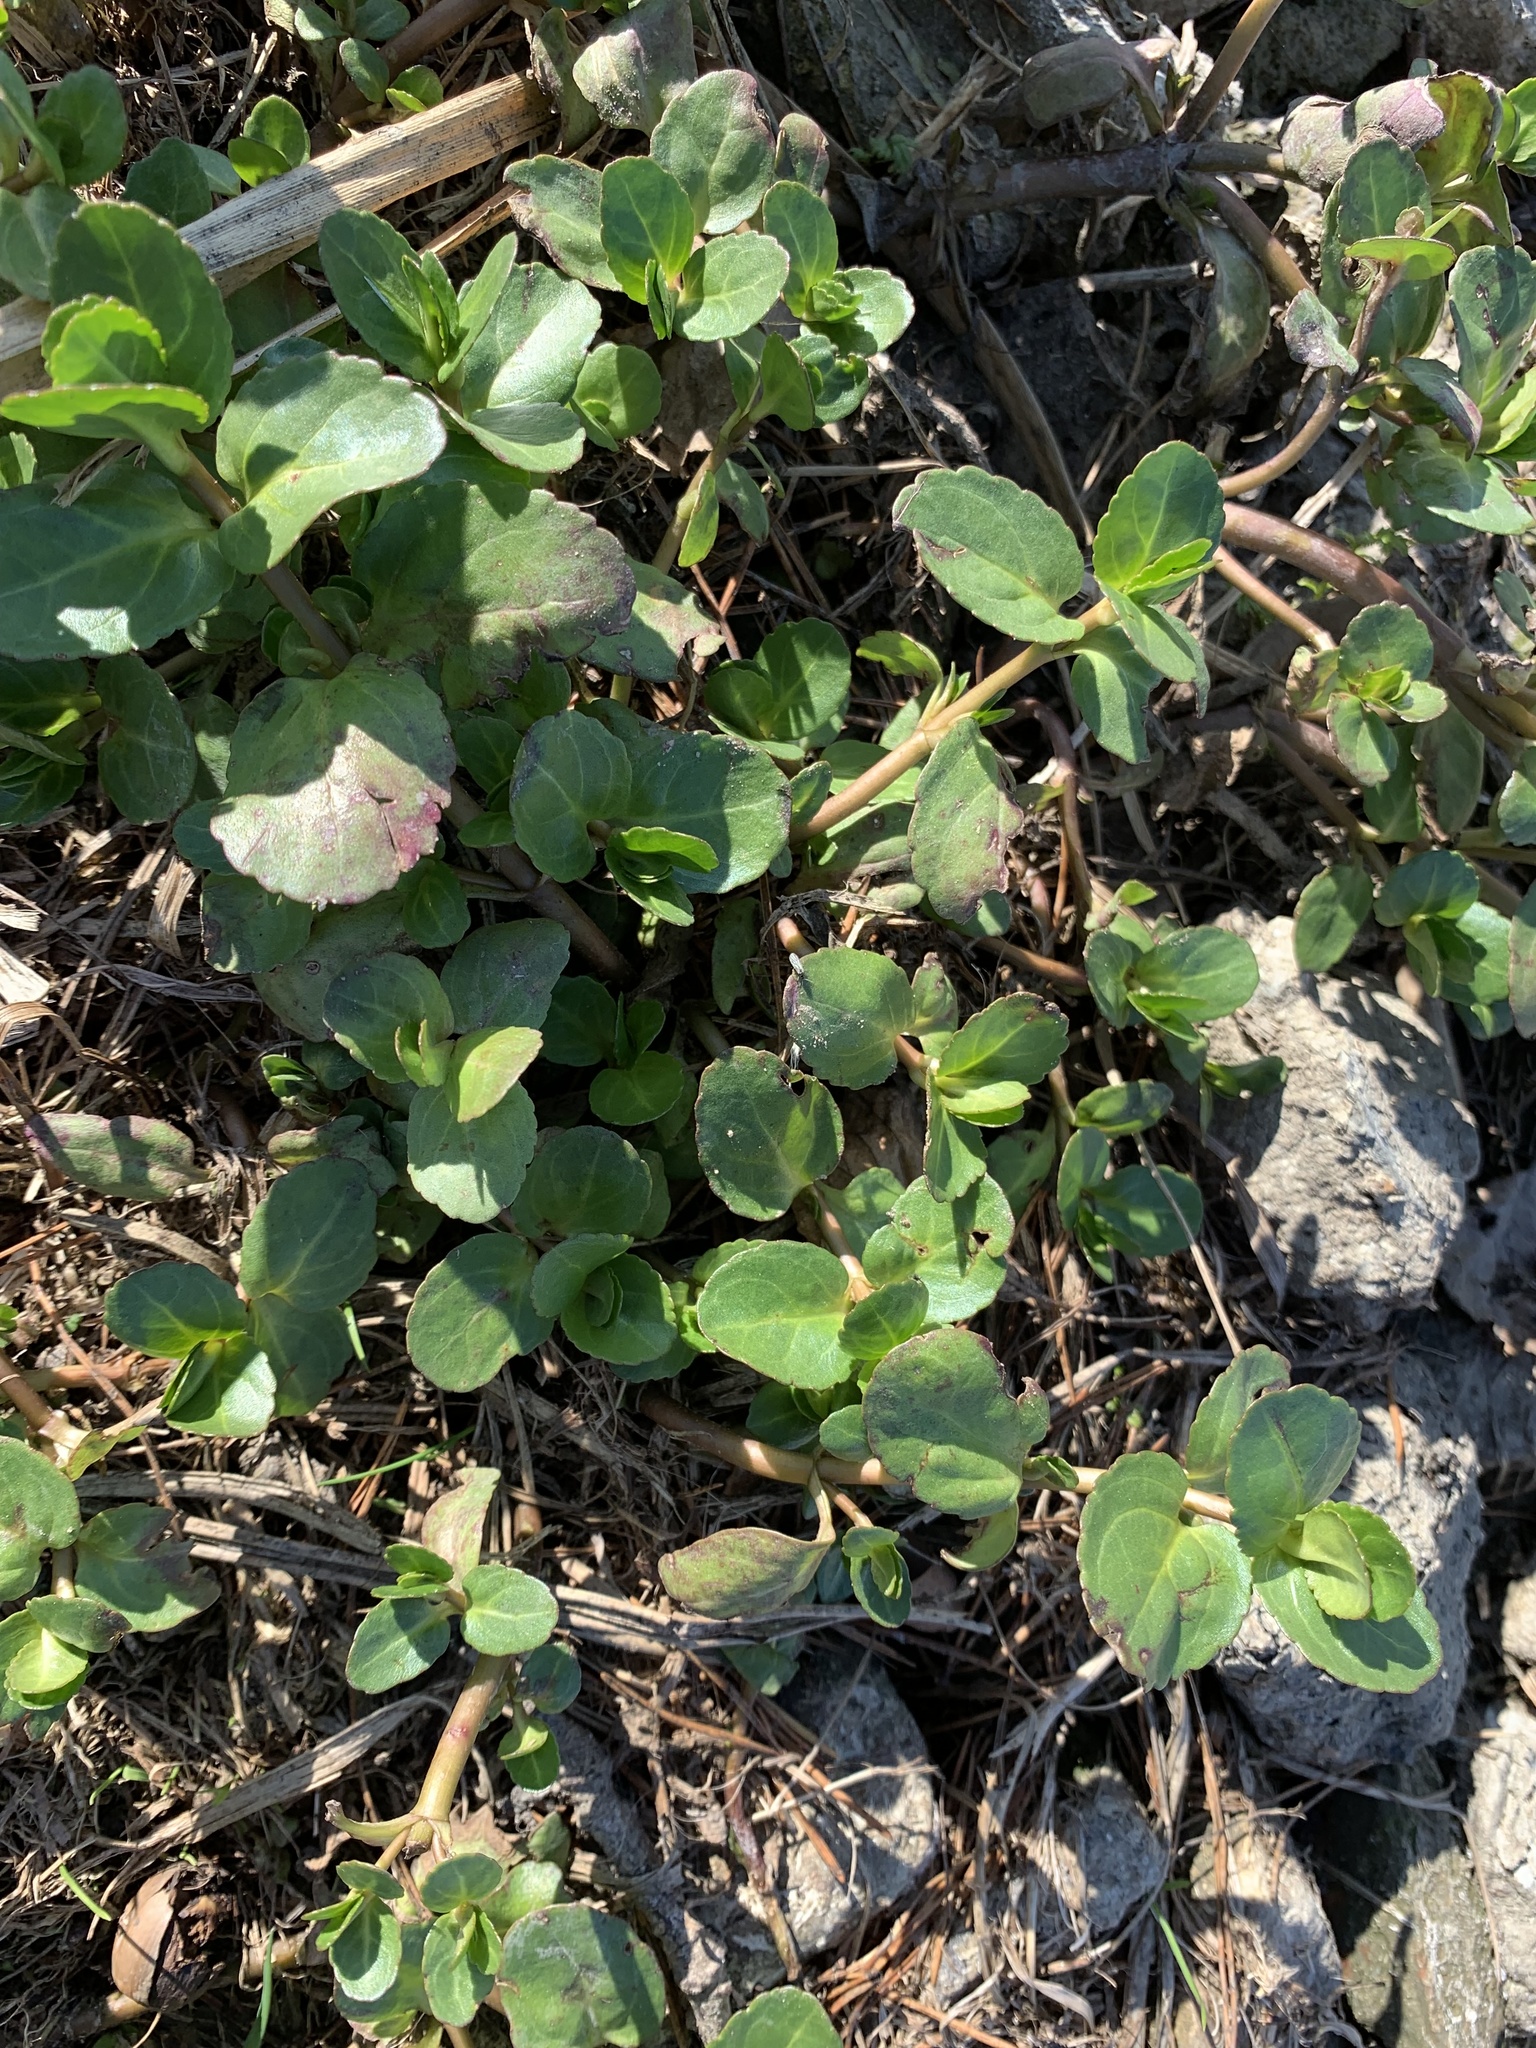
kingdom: Plantae
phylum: Tracheophyta
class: Magnoliopsida
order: Lamiales
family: Plantaginaceae
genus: Veronica
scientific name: Veronica beccabunga
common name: Brooklime
